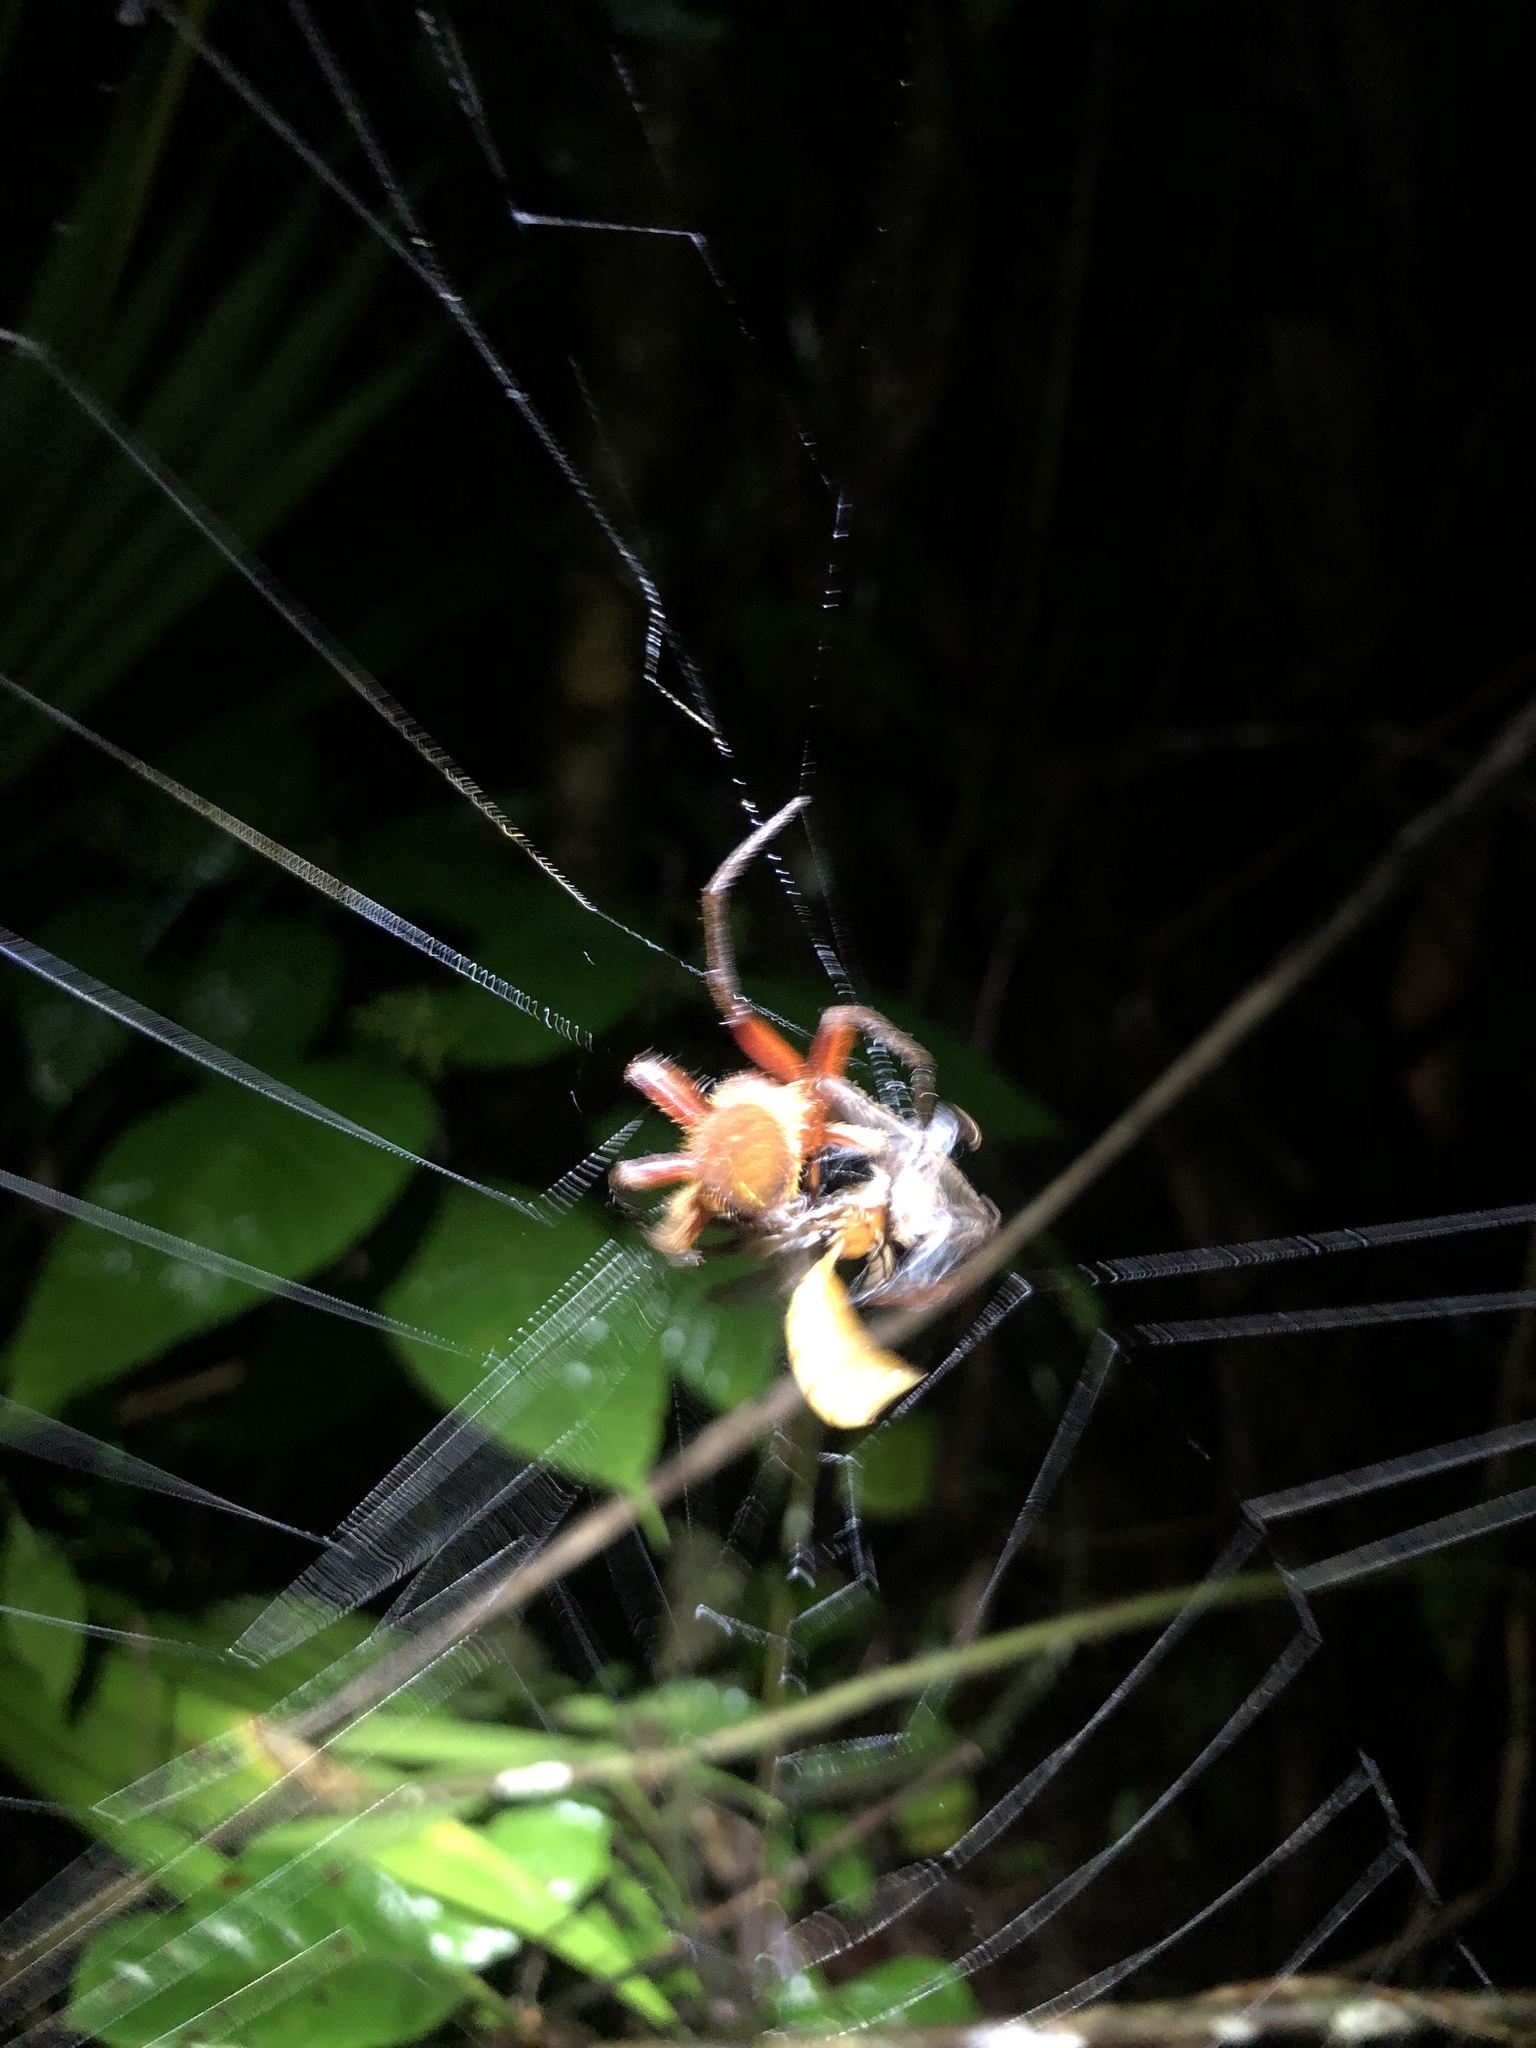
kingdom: Animalia
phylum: Arthropoda
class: Arachnida
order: Araneae
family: Araneidae
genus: Eriophora
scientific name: Eriophora fuliginea
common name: Orb weavers
